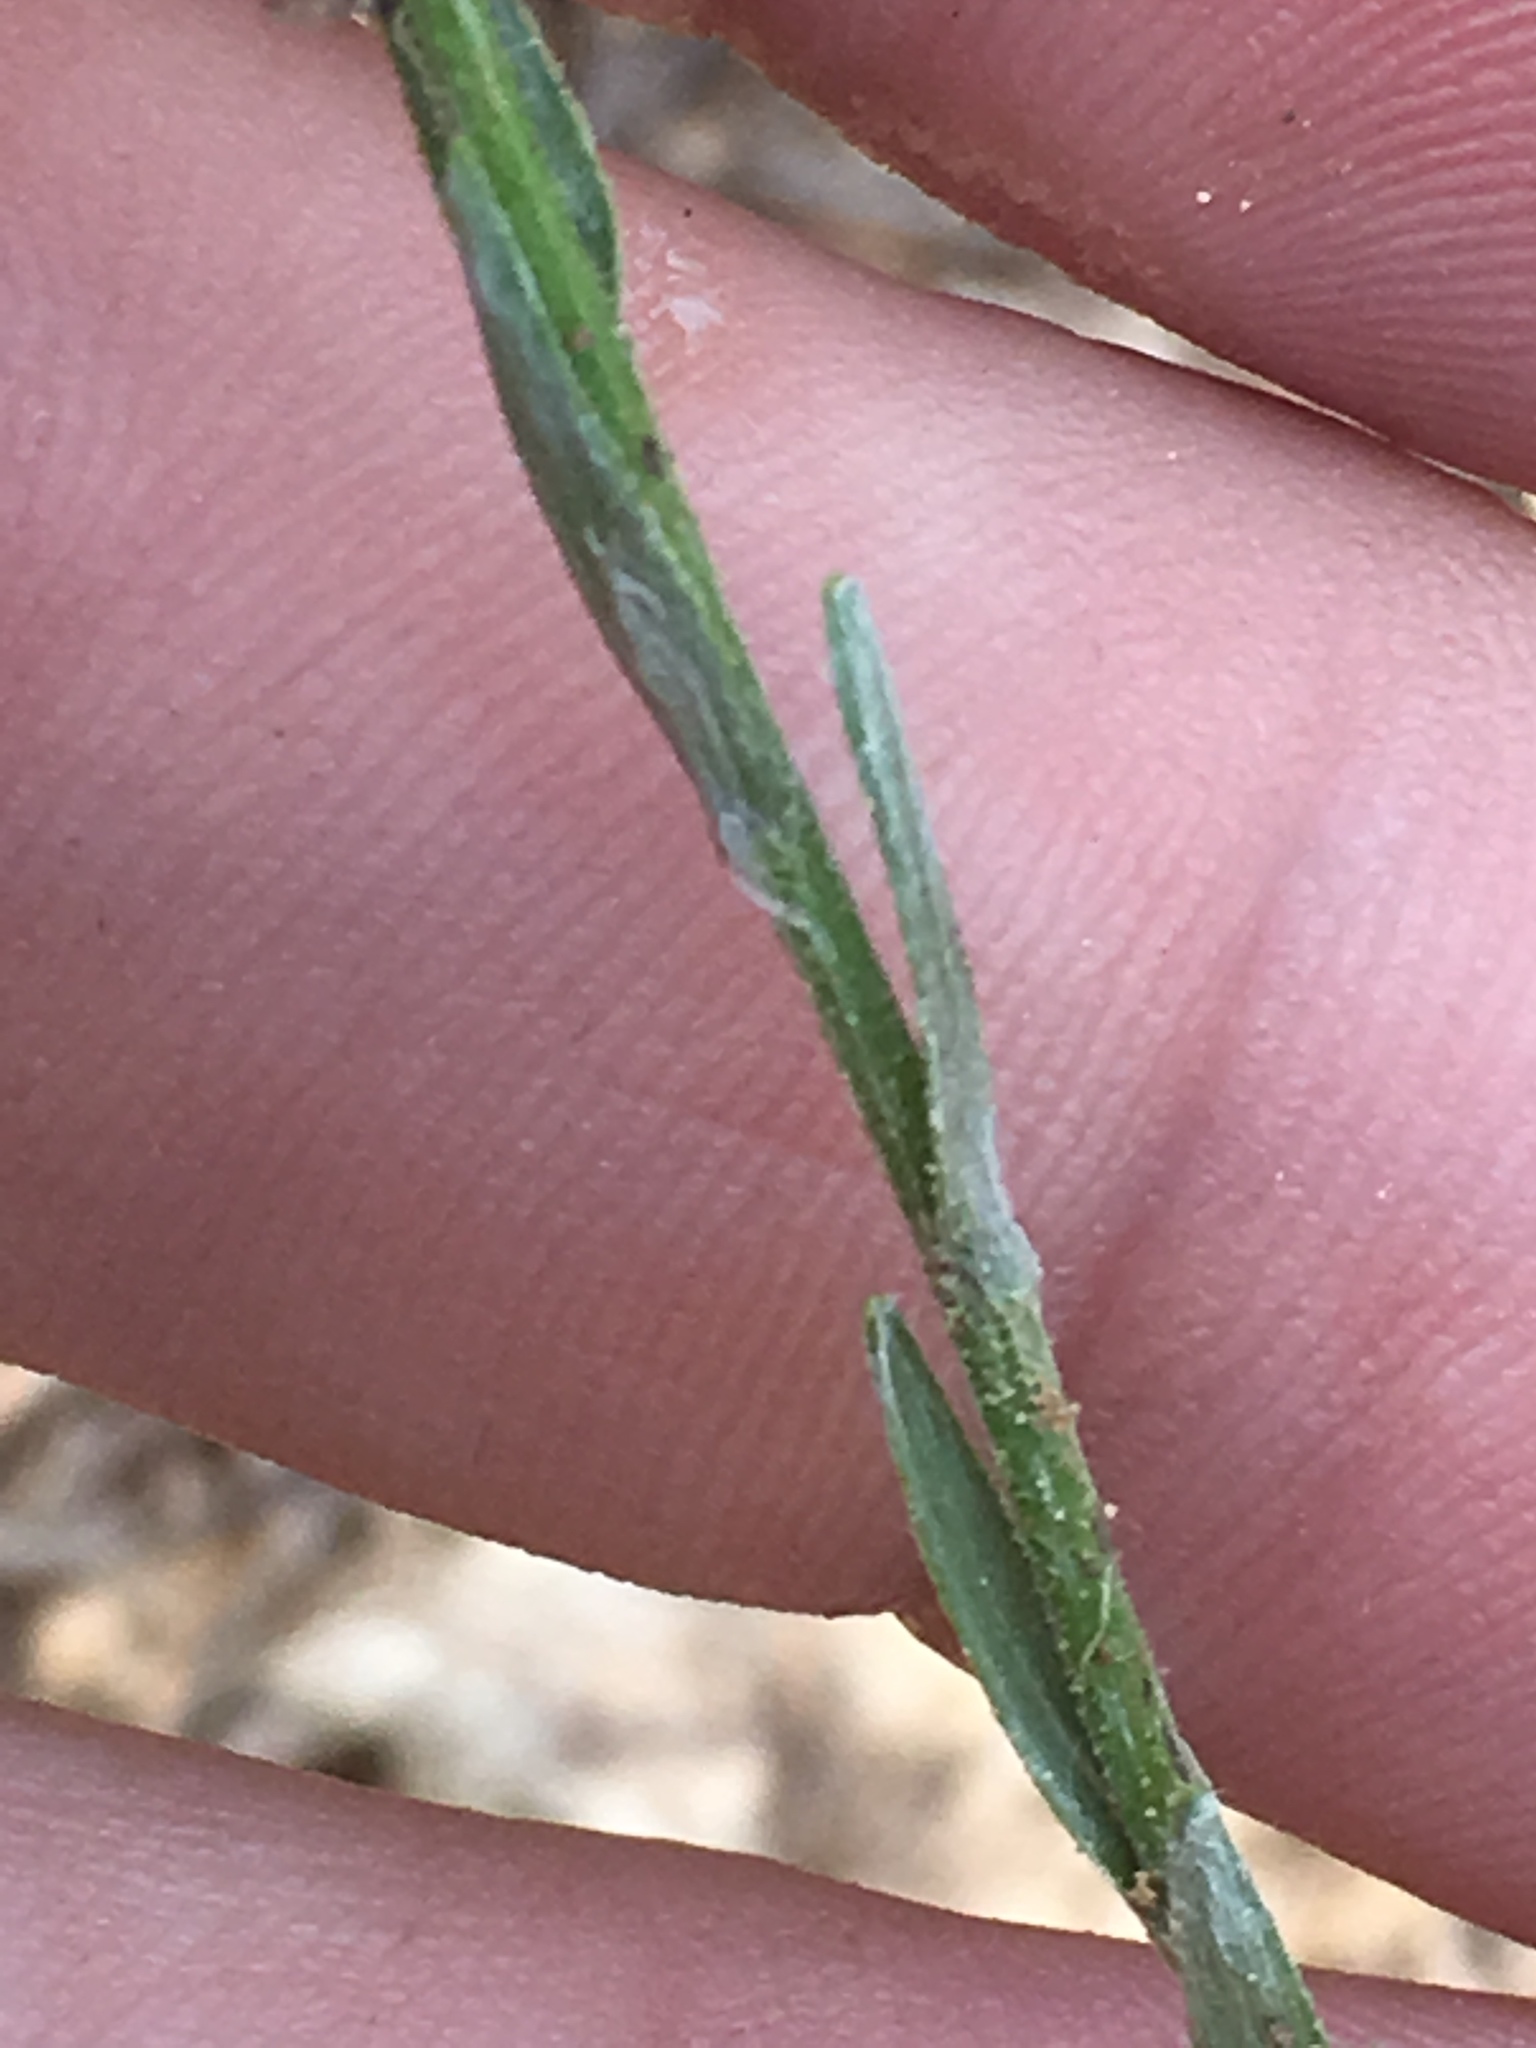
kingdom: Plantae
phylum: Tracheophyta
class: Magnoliopsida
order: Asterales
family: Asteraceae
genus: Pityopsis
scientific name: Pityopsis aspera
